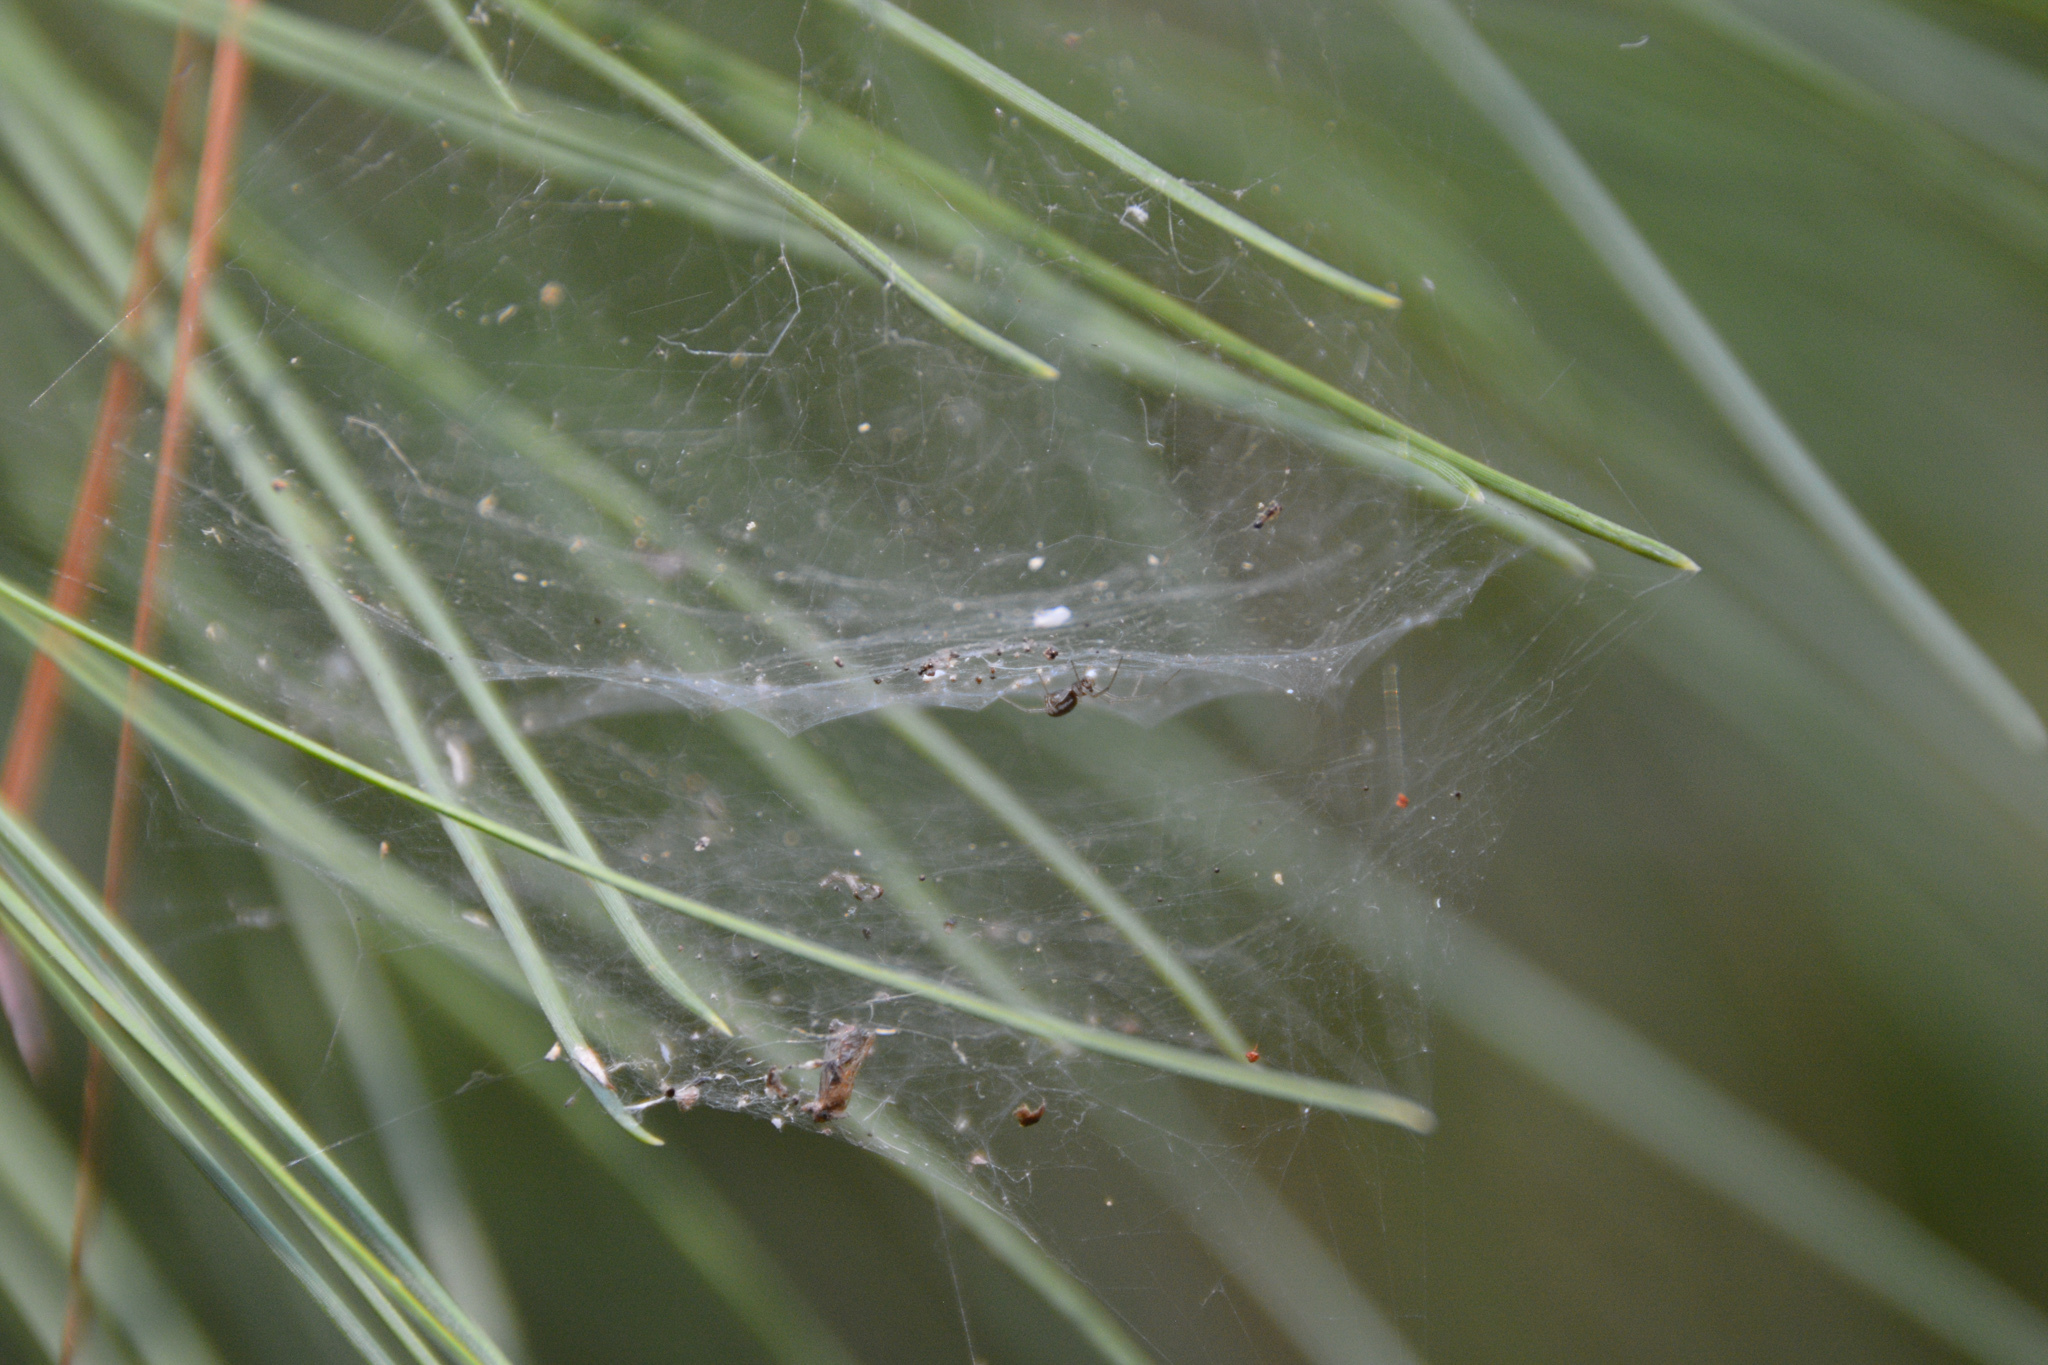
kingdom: Animalia
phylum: Arthropoda
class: Arachnida
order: Araneae
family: Linyphiidae
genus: Frontinella
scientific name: Frontinella pyramitela
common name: Bowl-and-doily spider
